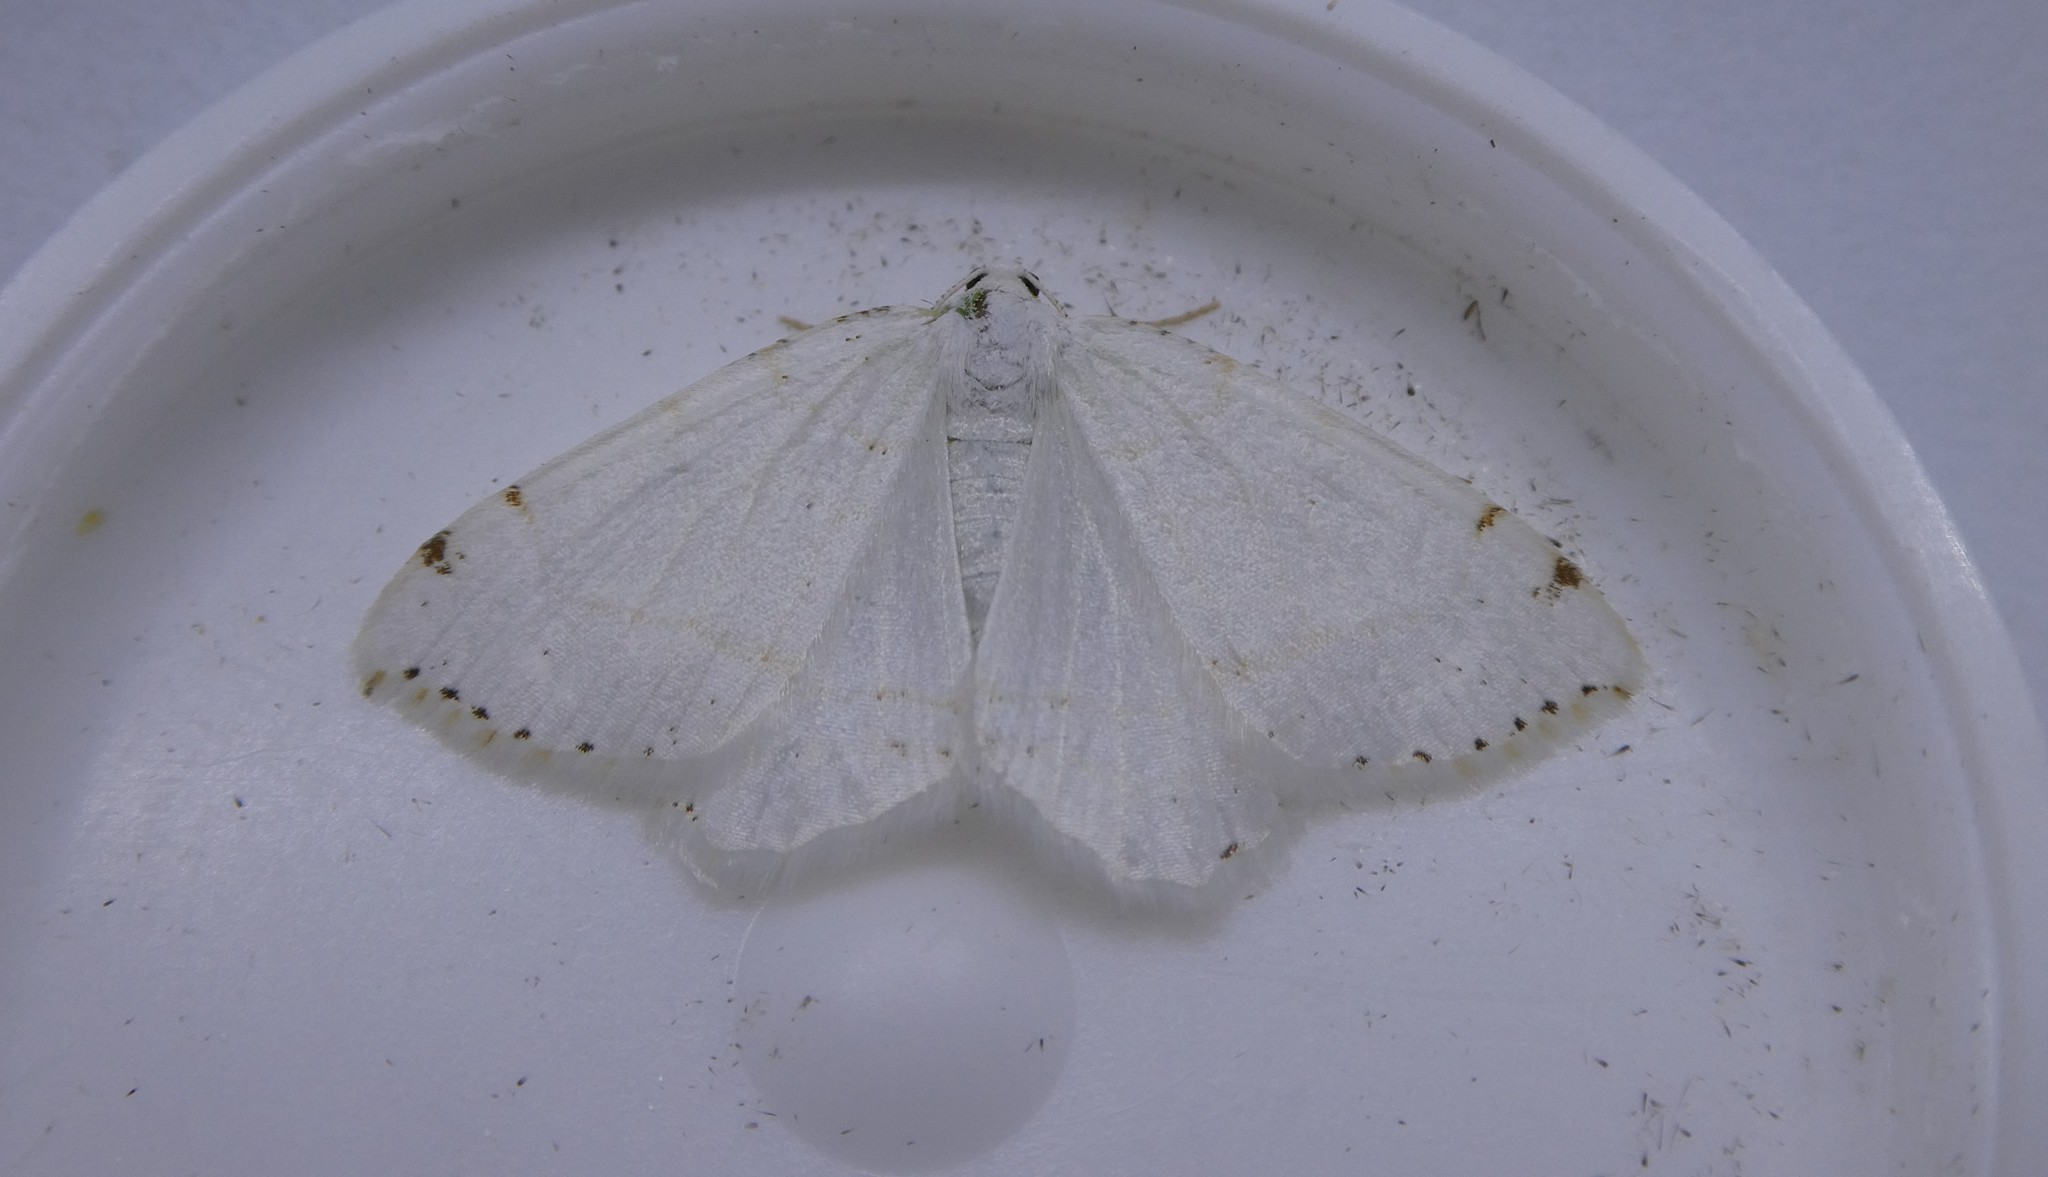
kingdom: Animalia
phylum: Arthropoda
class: Insecta
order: Lepidoptera
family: Geometridae
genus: Macaria
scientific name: Macaria pustularia
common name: Lesser maple spanworm moth
